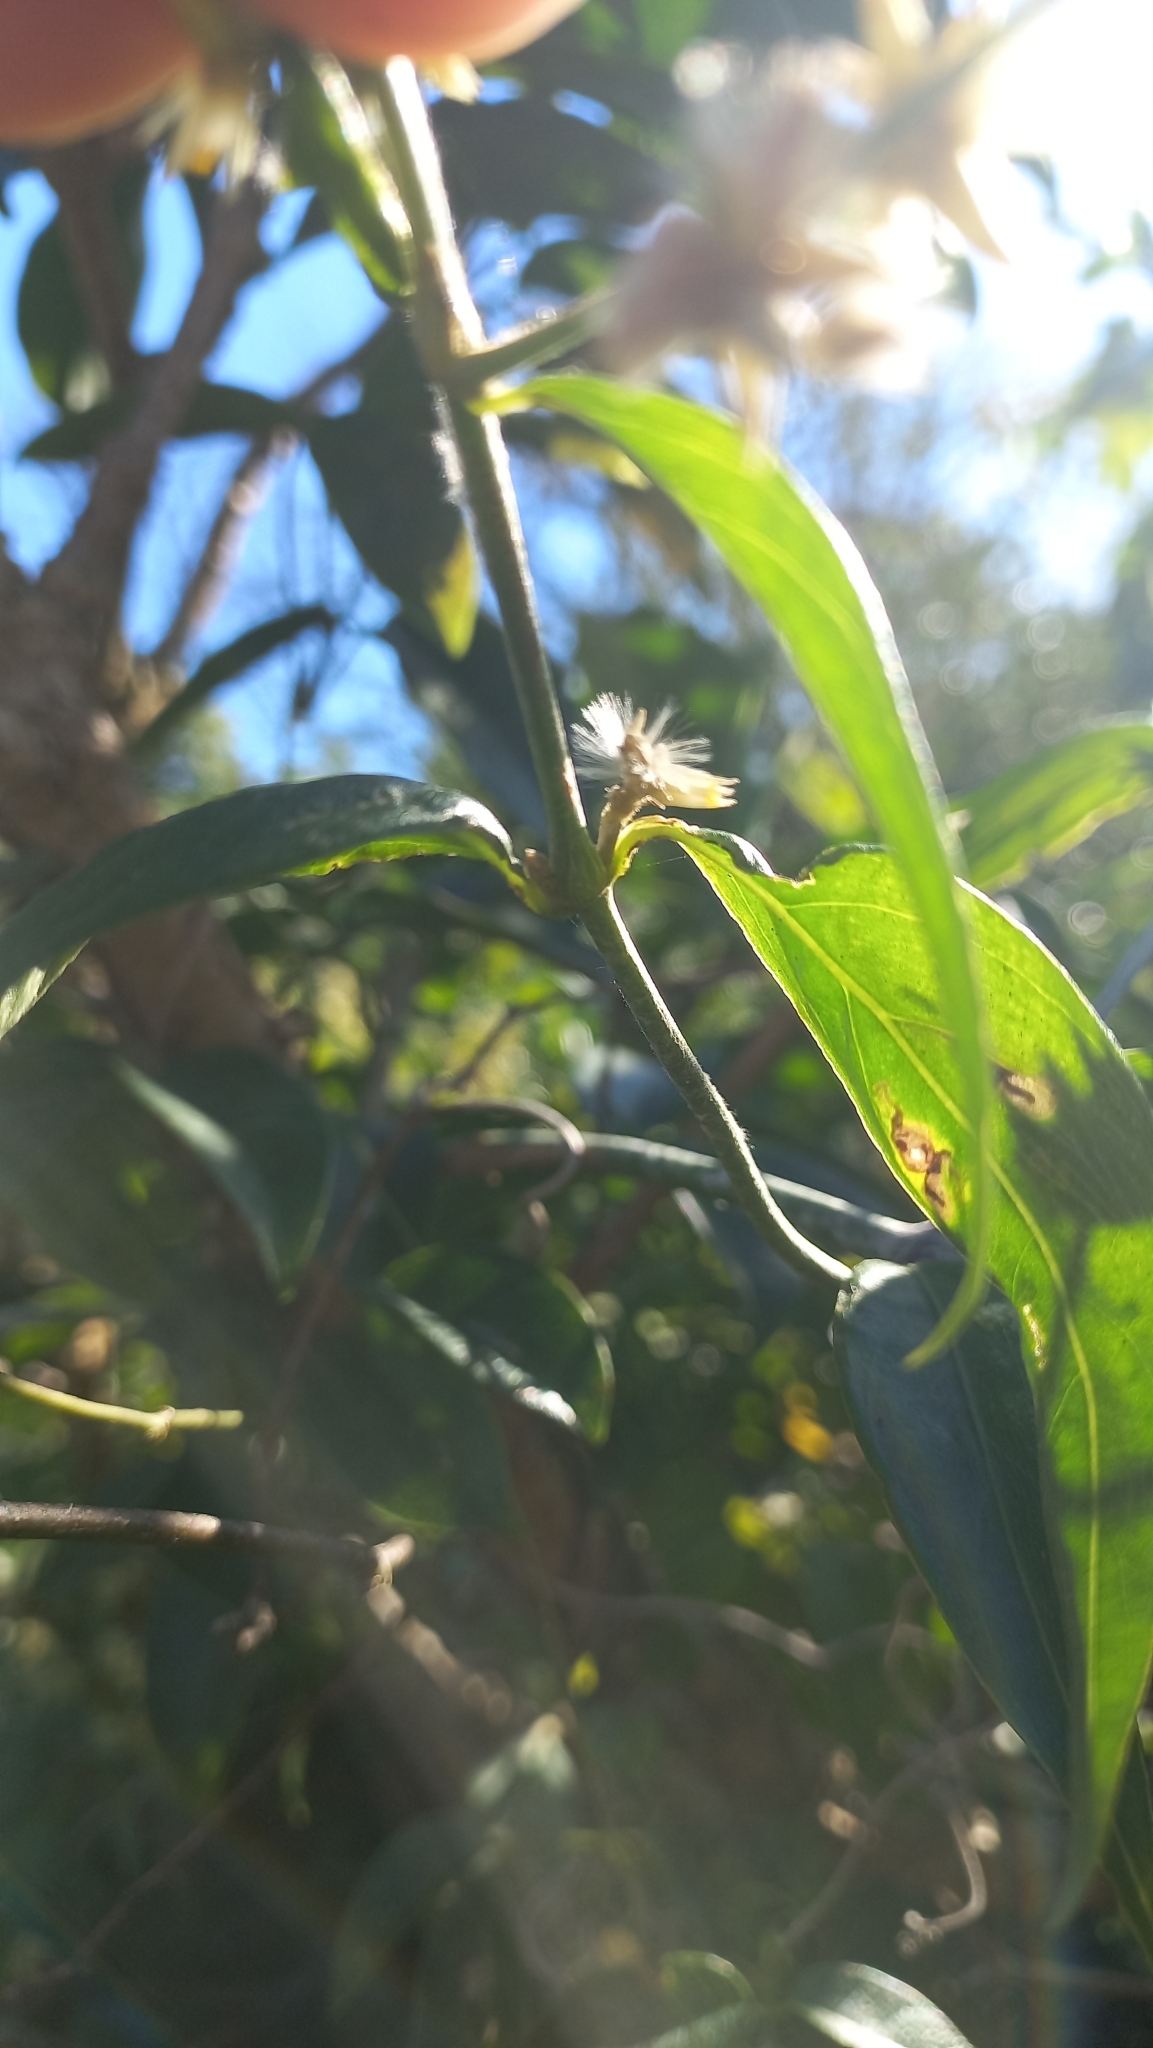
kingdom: Plantae
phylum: Tracheophyta
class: Magnoliopsida
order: Caryophyllales
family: Amaranthaceae
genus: Gomphrena
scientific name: Gomphrena vaga
